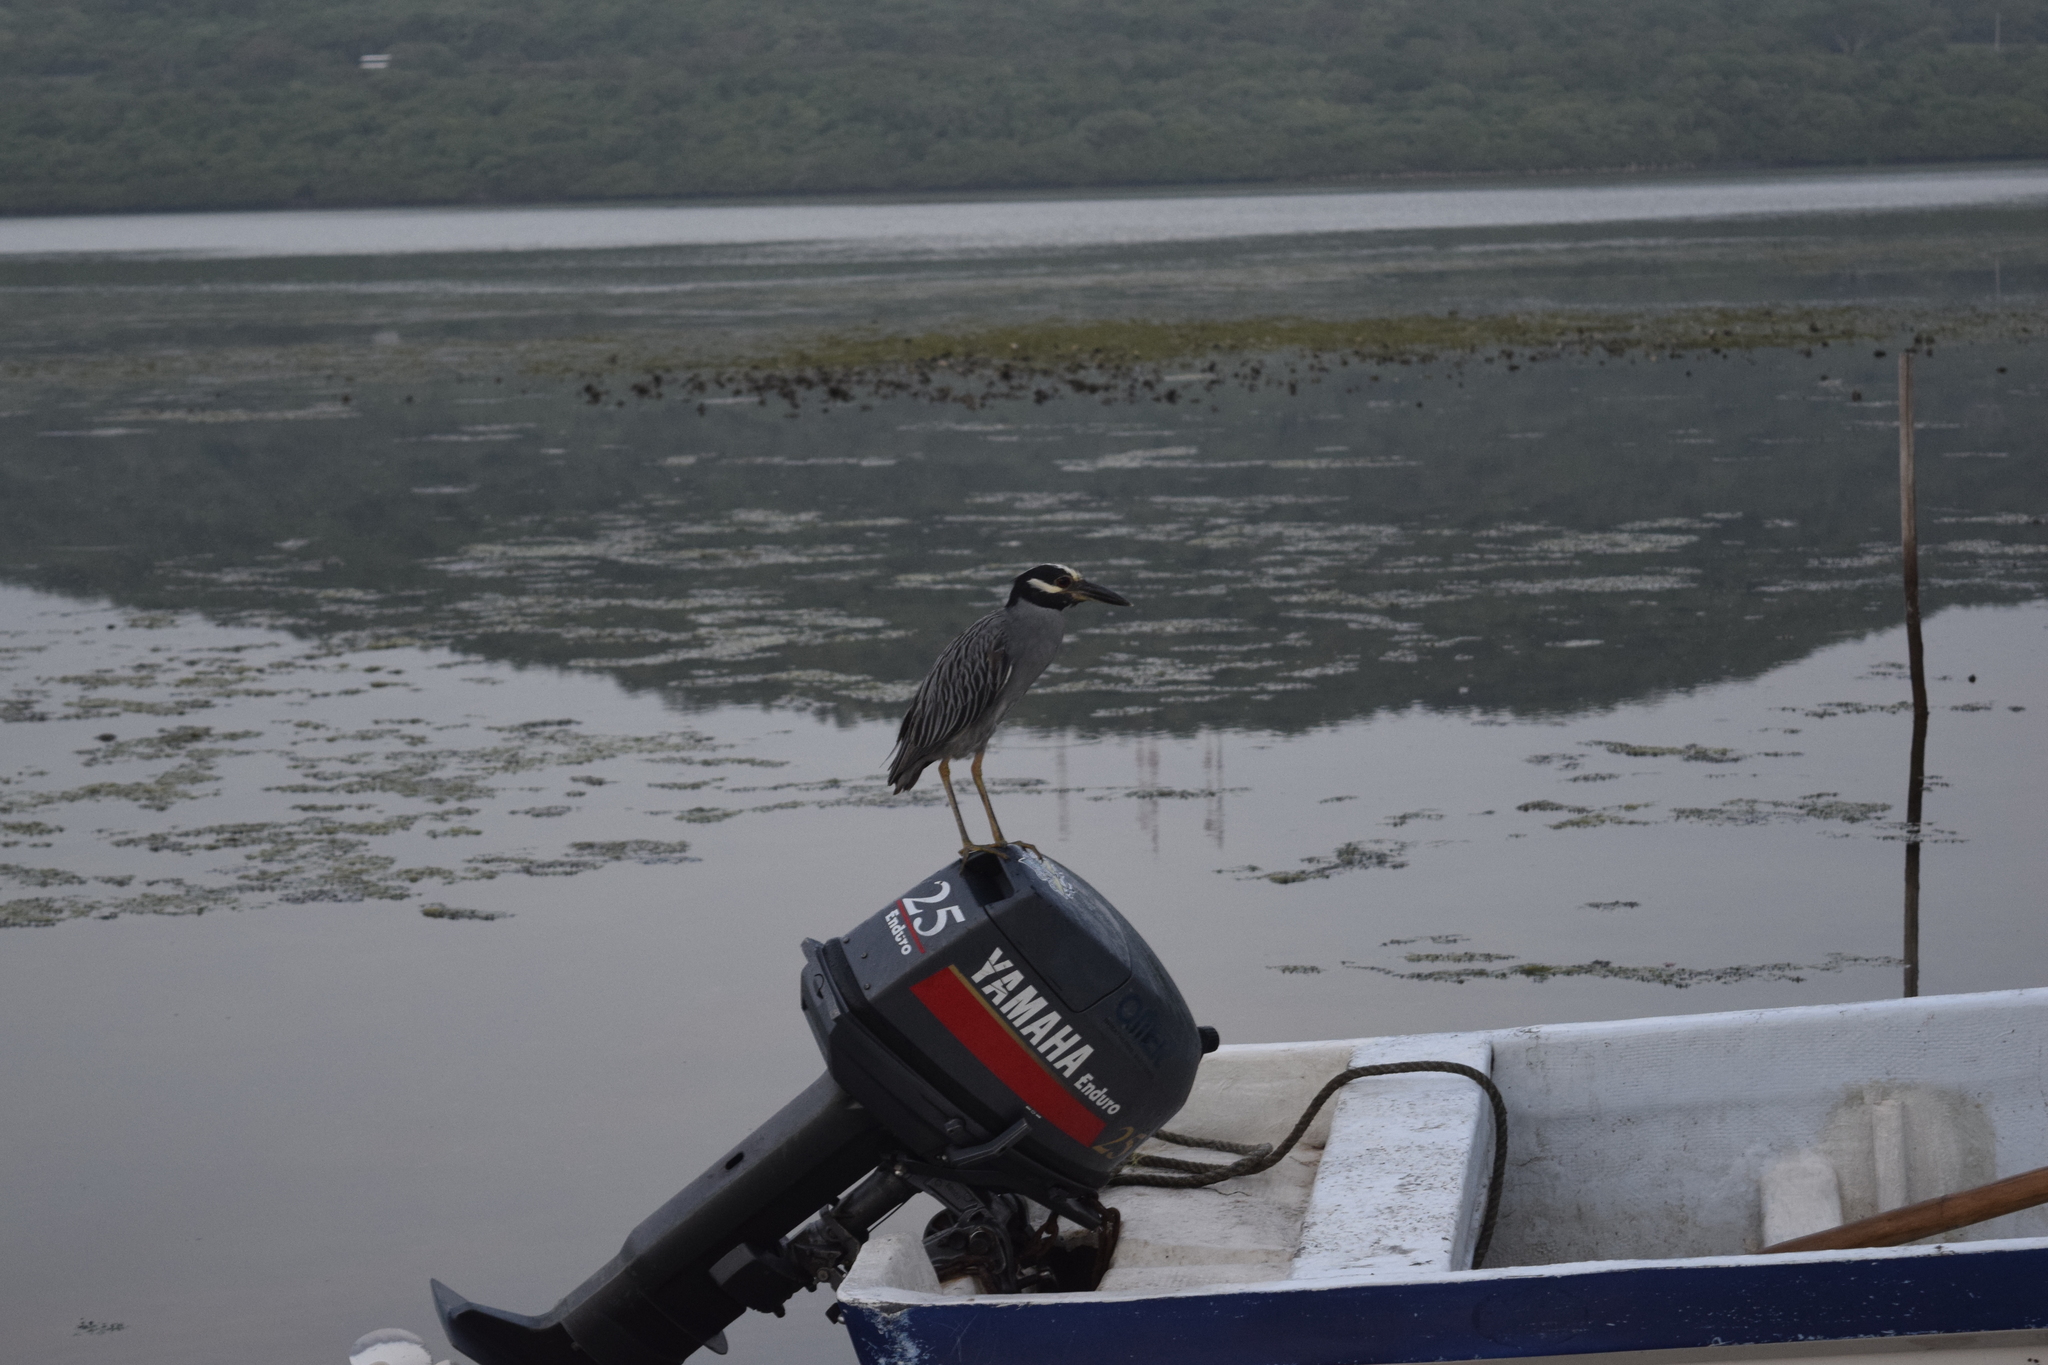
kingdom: Animalia
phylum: Chordata
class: Aves
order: Pelecaniformes
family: Ardeidae
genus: Nyctanassa
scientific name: Nyctanassa violacea
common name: Yellow-crowned night heron
